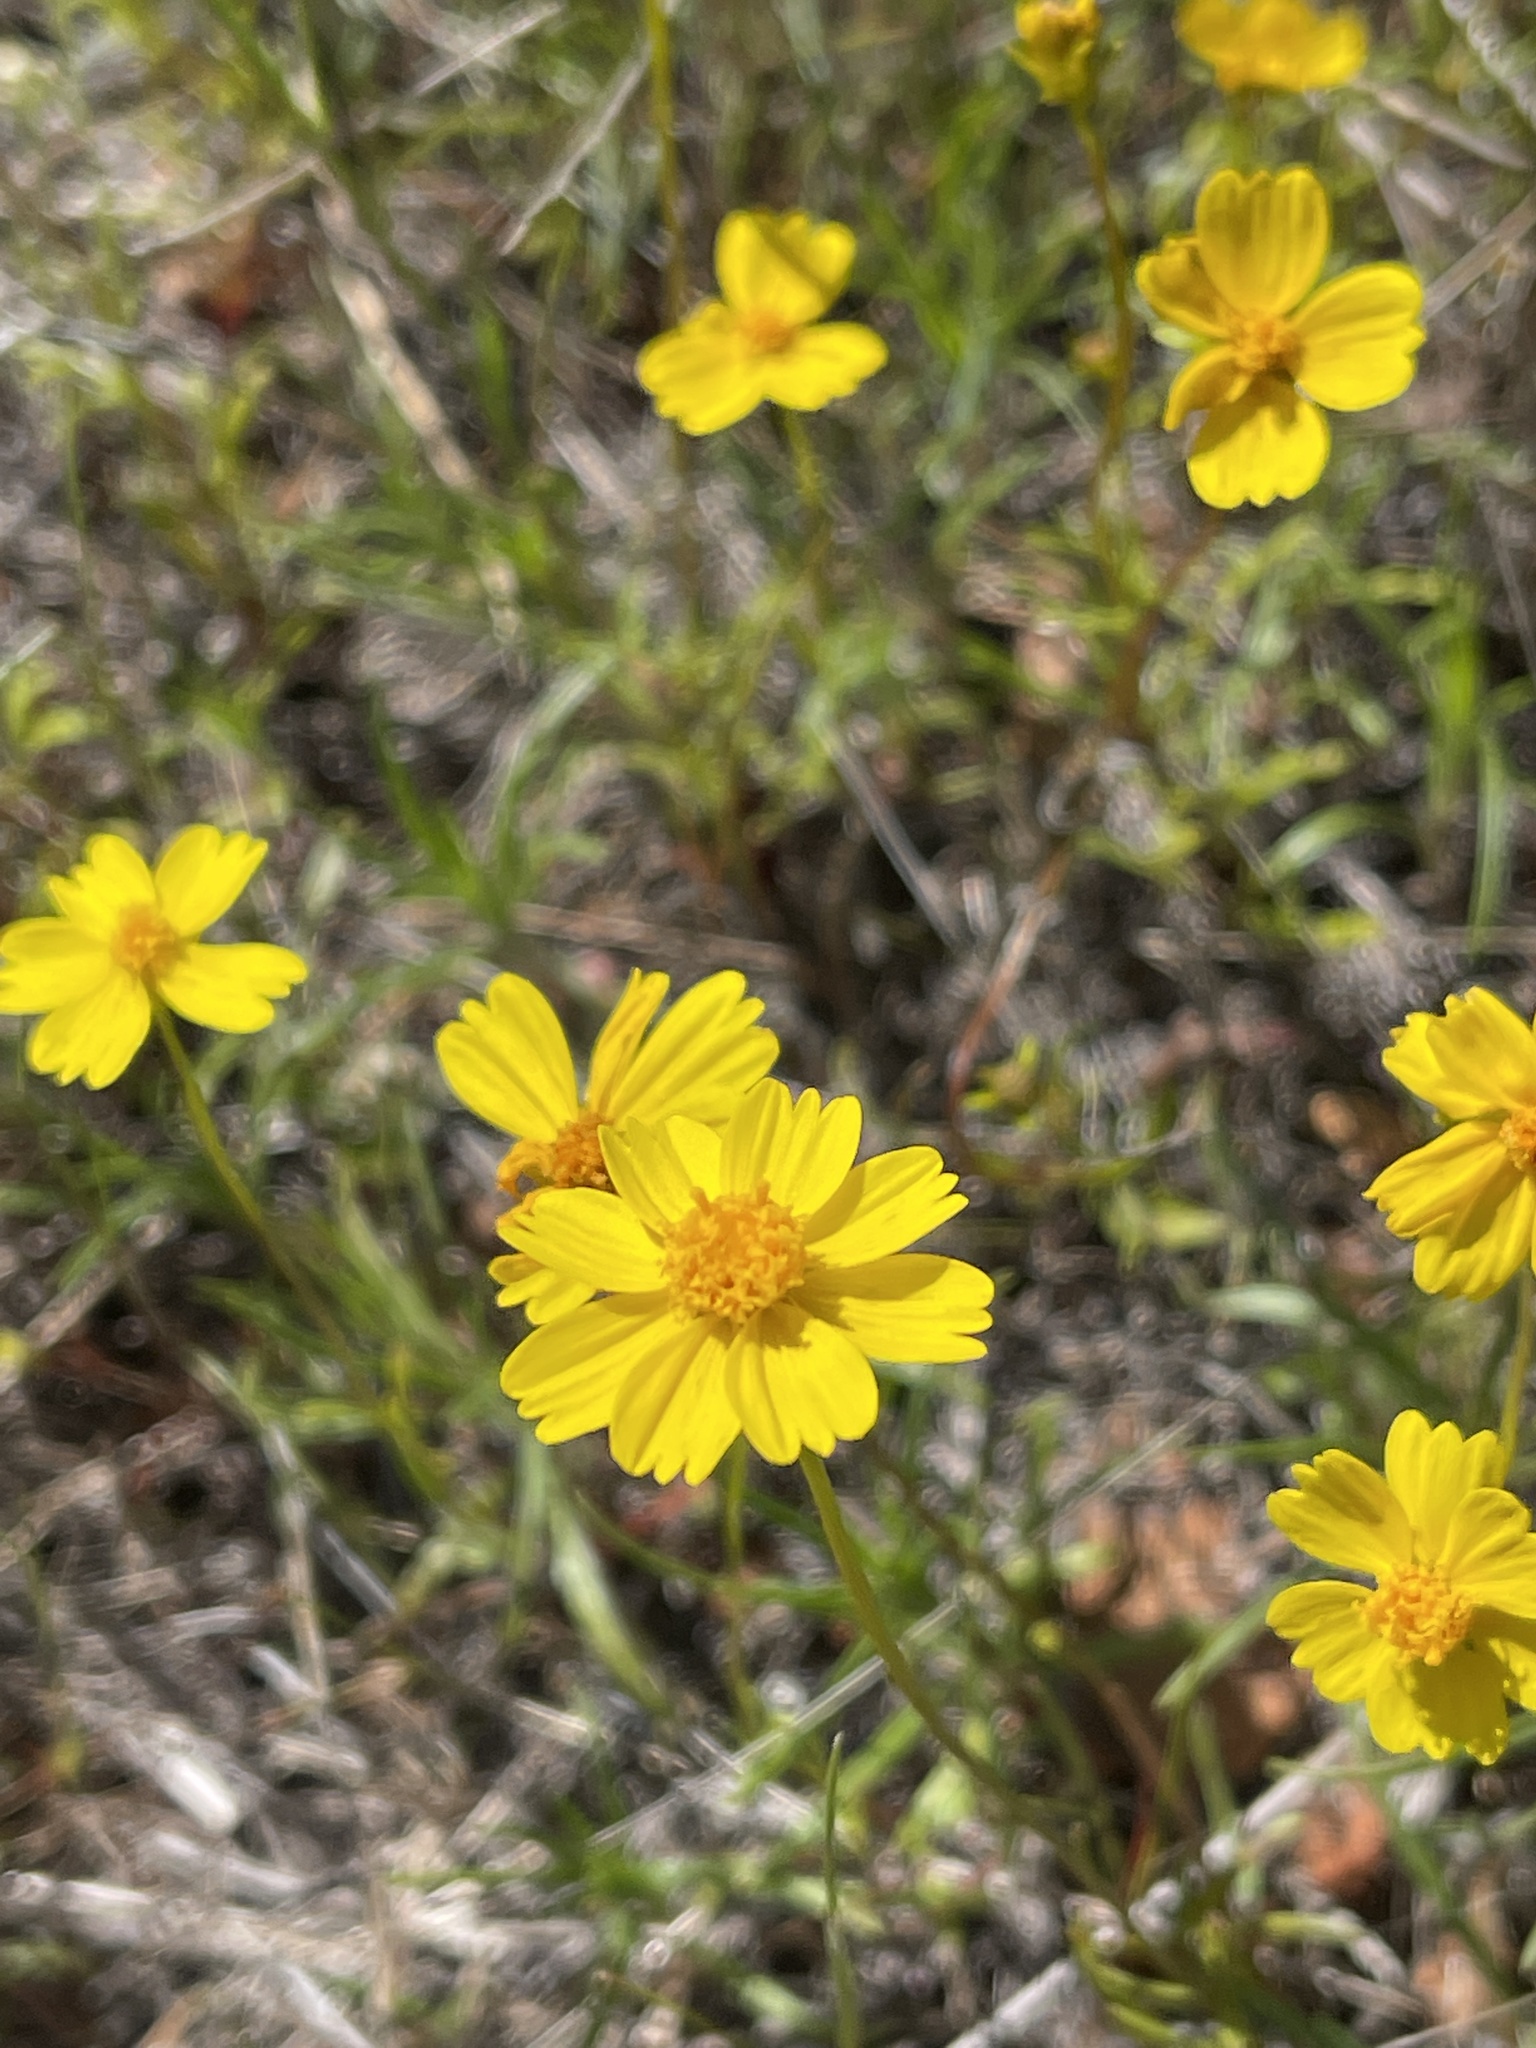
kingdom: Plantae
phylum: Tracheophyta
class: Magnoliopsida
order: Asterales
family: Asteraceae
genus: Coreopsis
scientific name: Coreopsis stillmanii
